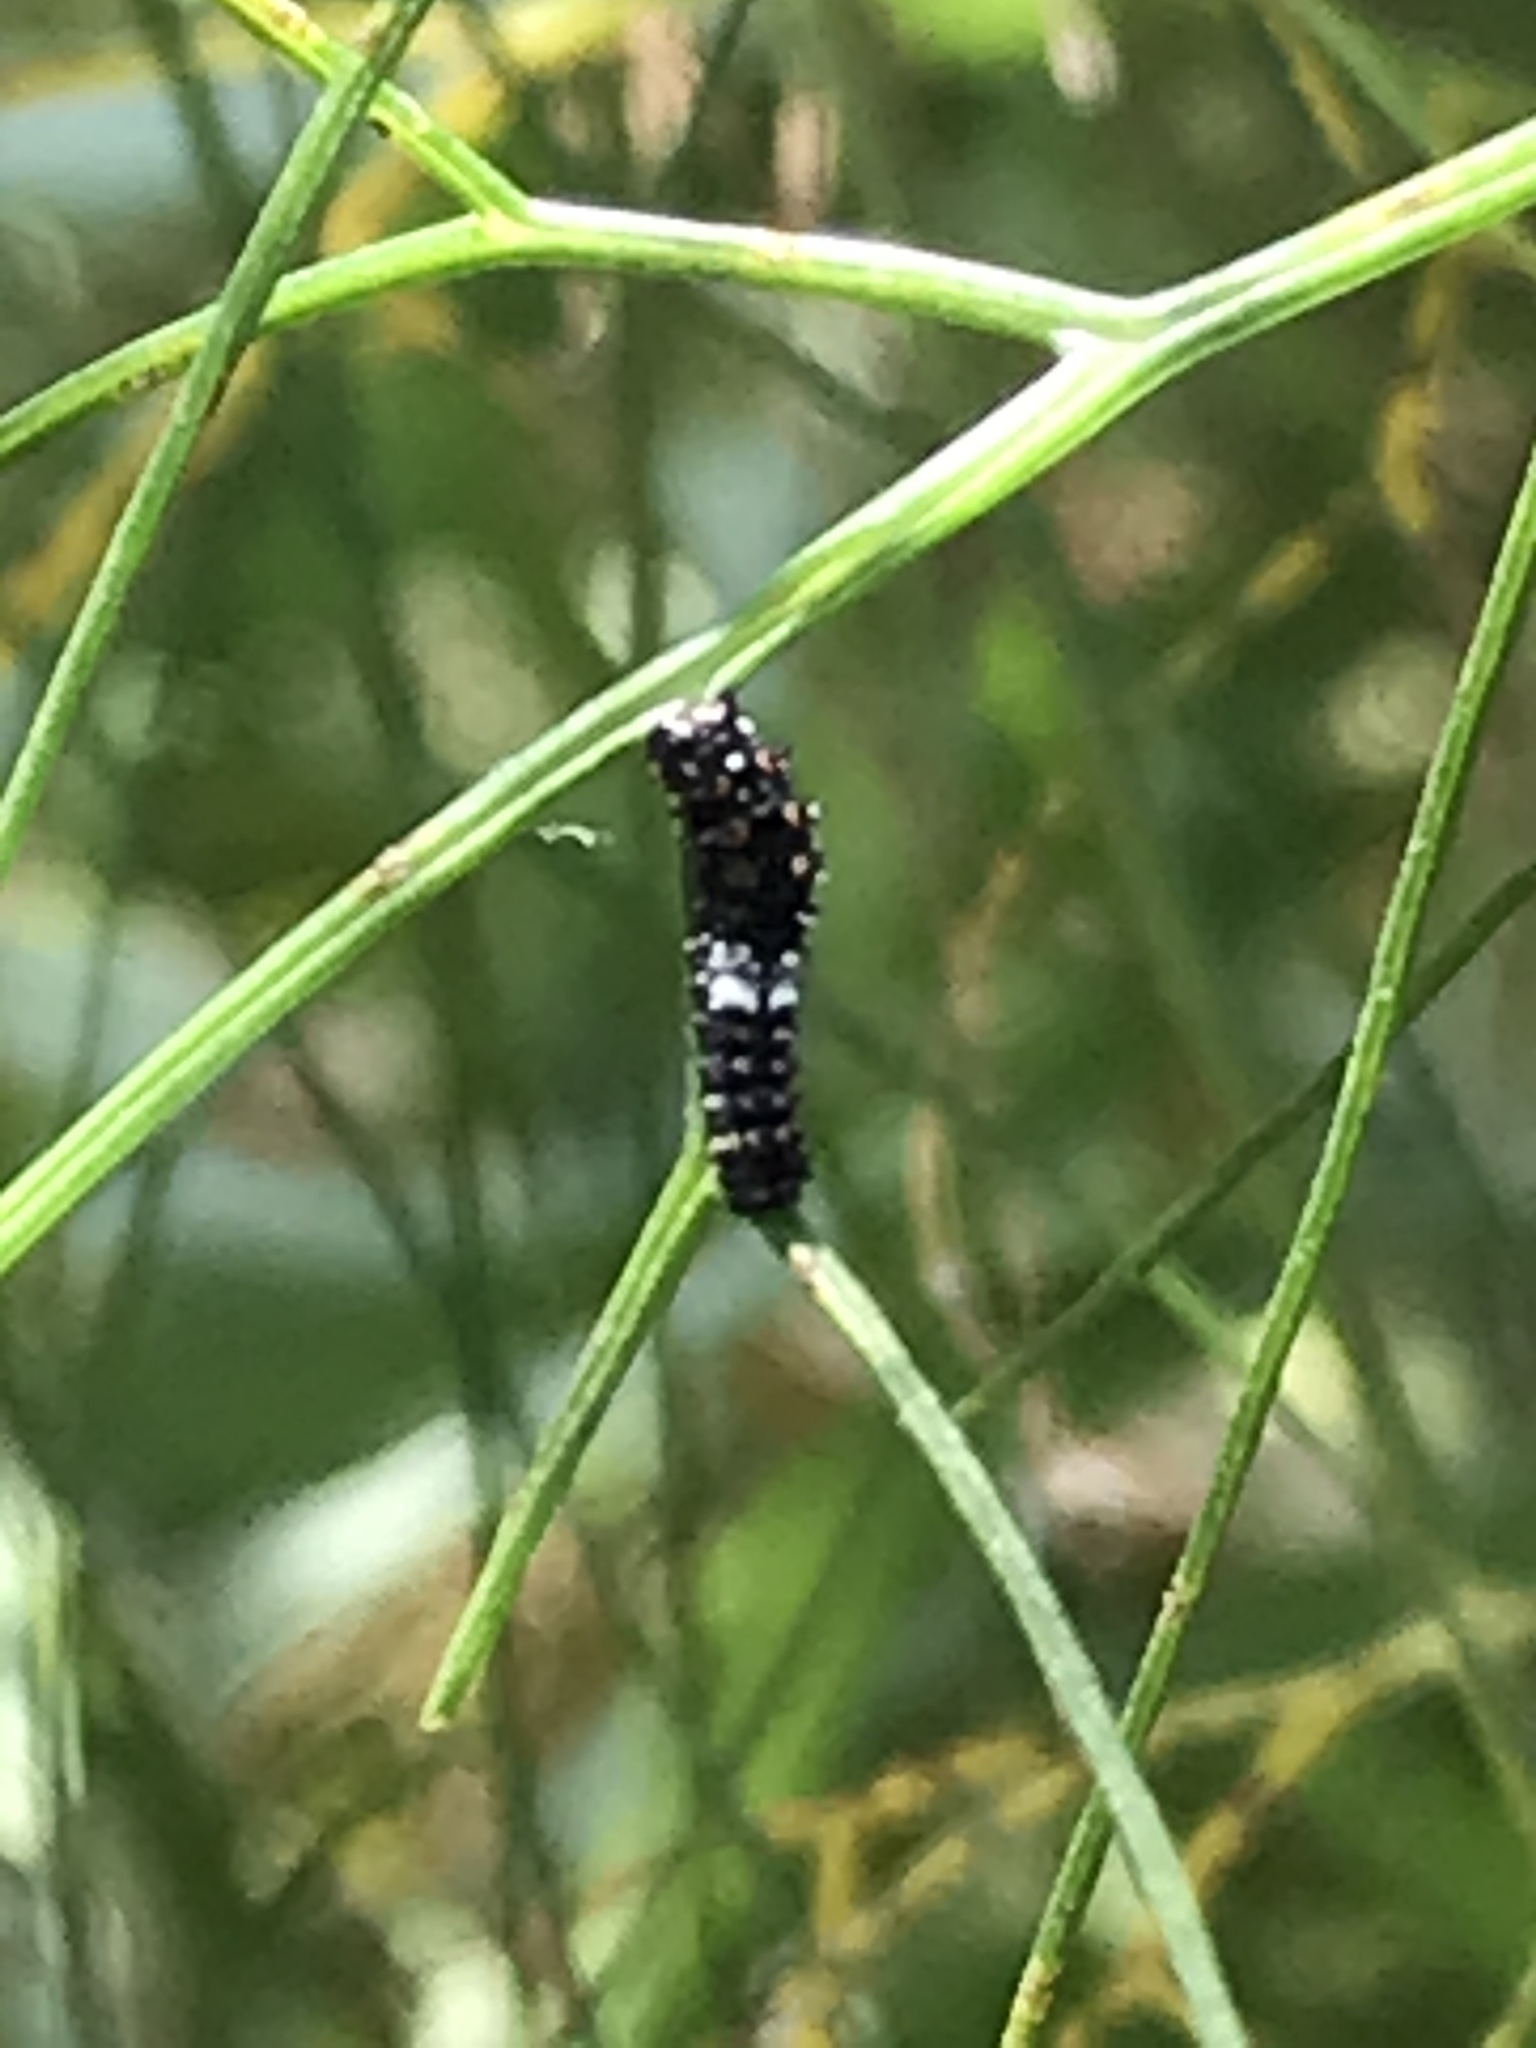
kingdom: Animalia
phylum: Arthropoda
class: Insecta
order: Lepidoptera
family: Papilionidae
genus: Papilio
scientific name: Papilio zelicaon
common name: Anise swallowtail
